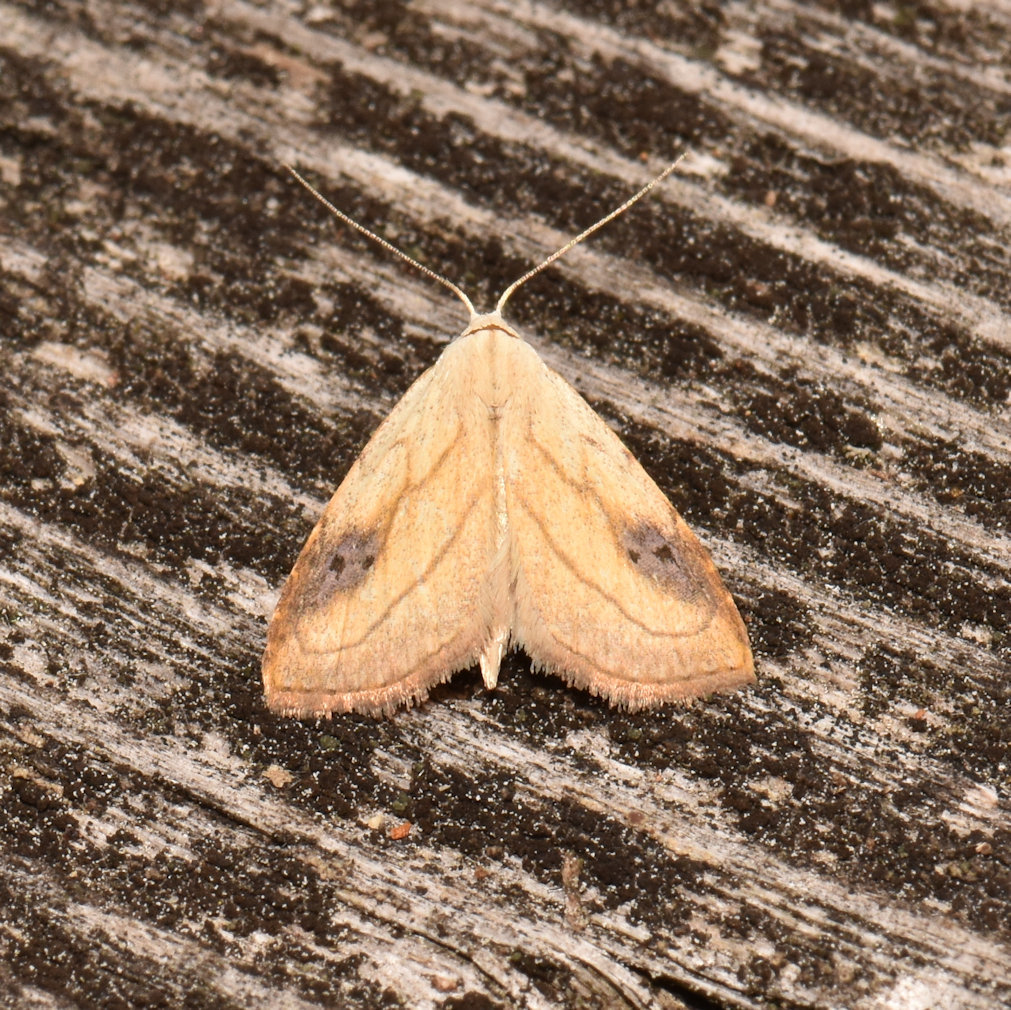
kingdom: Animalia
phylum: Arthropoda
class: Insecta
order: Lepidoptera
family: Erebidae
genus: Rivula
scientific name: Rivula propinqualis
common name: Spotted grass moth
